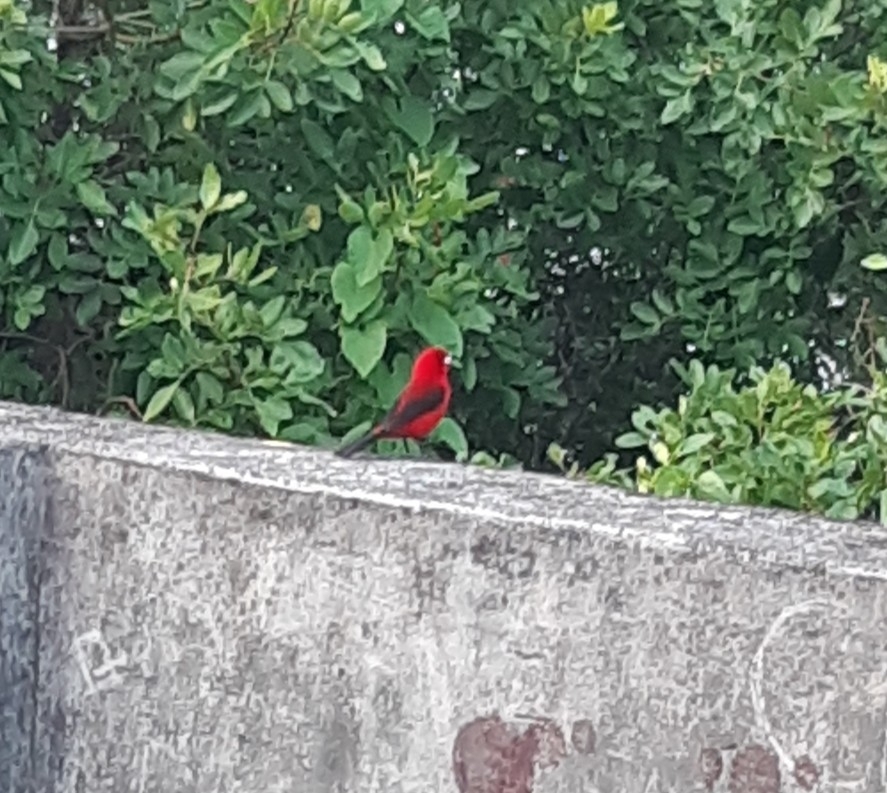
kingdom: Animalia
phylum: Chordata
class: Aves
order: Passeriformes
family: Thraupidae
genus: Ramphocelus
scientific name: Ramphocelus bresilia
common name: Brazilian tanager
